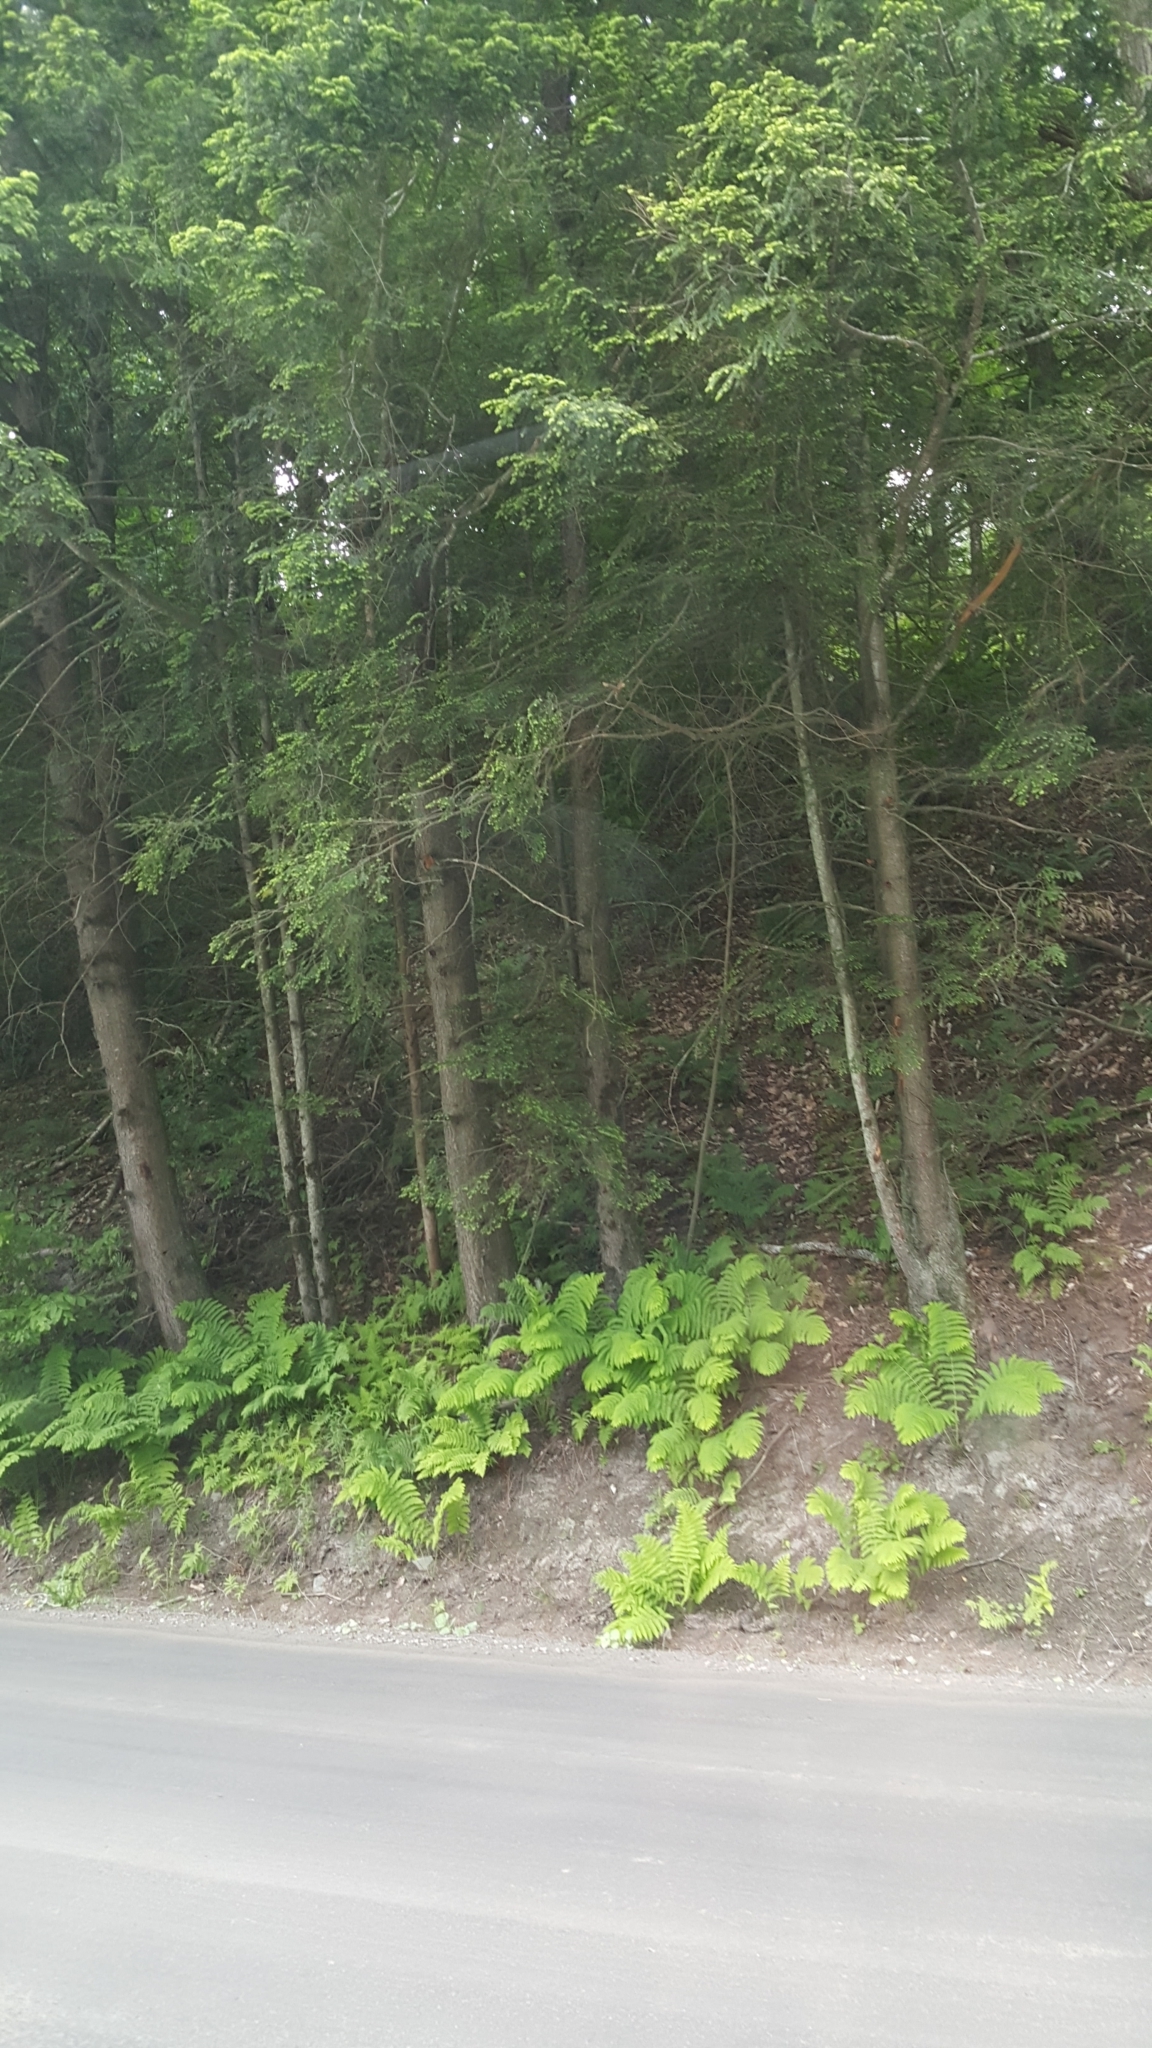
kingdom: Plantae
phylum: Tracheophyta
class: Pinopsida
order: Pinales
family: Pinaceae
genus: Tsuga
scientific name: Tsuga canadensis
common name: Eastern hemlock
